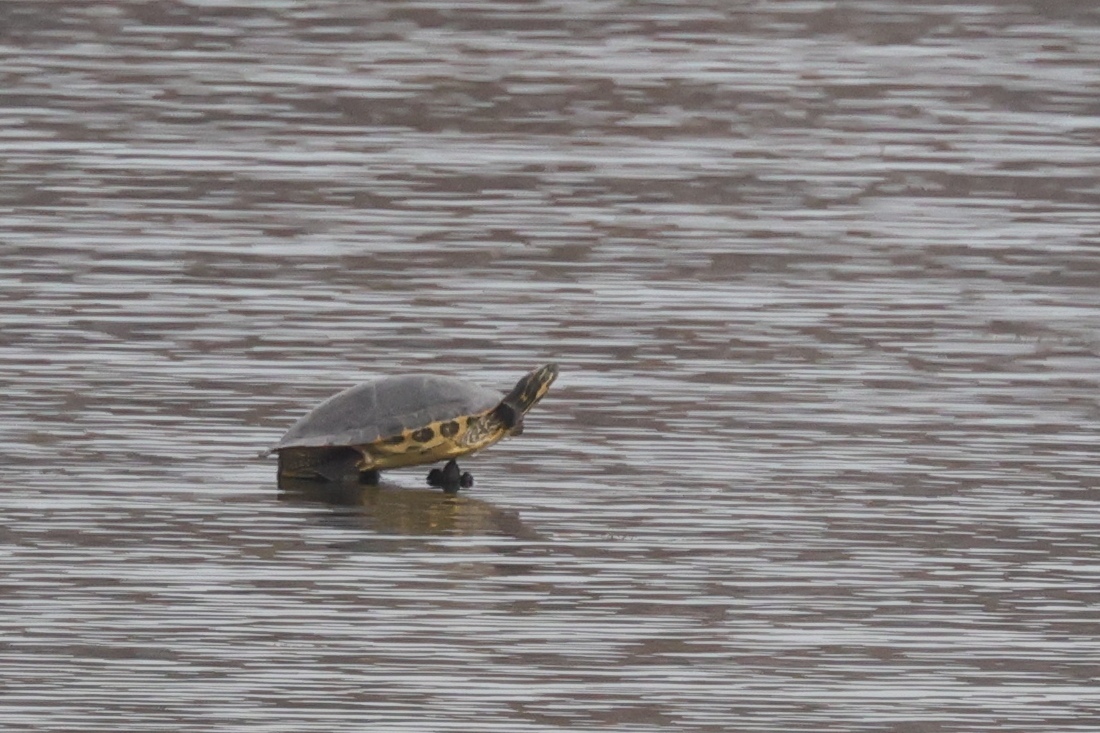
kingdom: Animalia
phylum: Chordata
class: Testudines
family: Emydidae
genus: Pseudemys
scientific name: Pseudemys concinna
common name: Eastern river cooter
